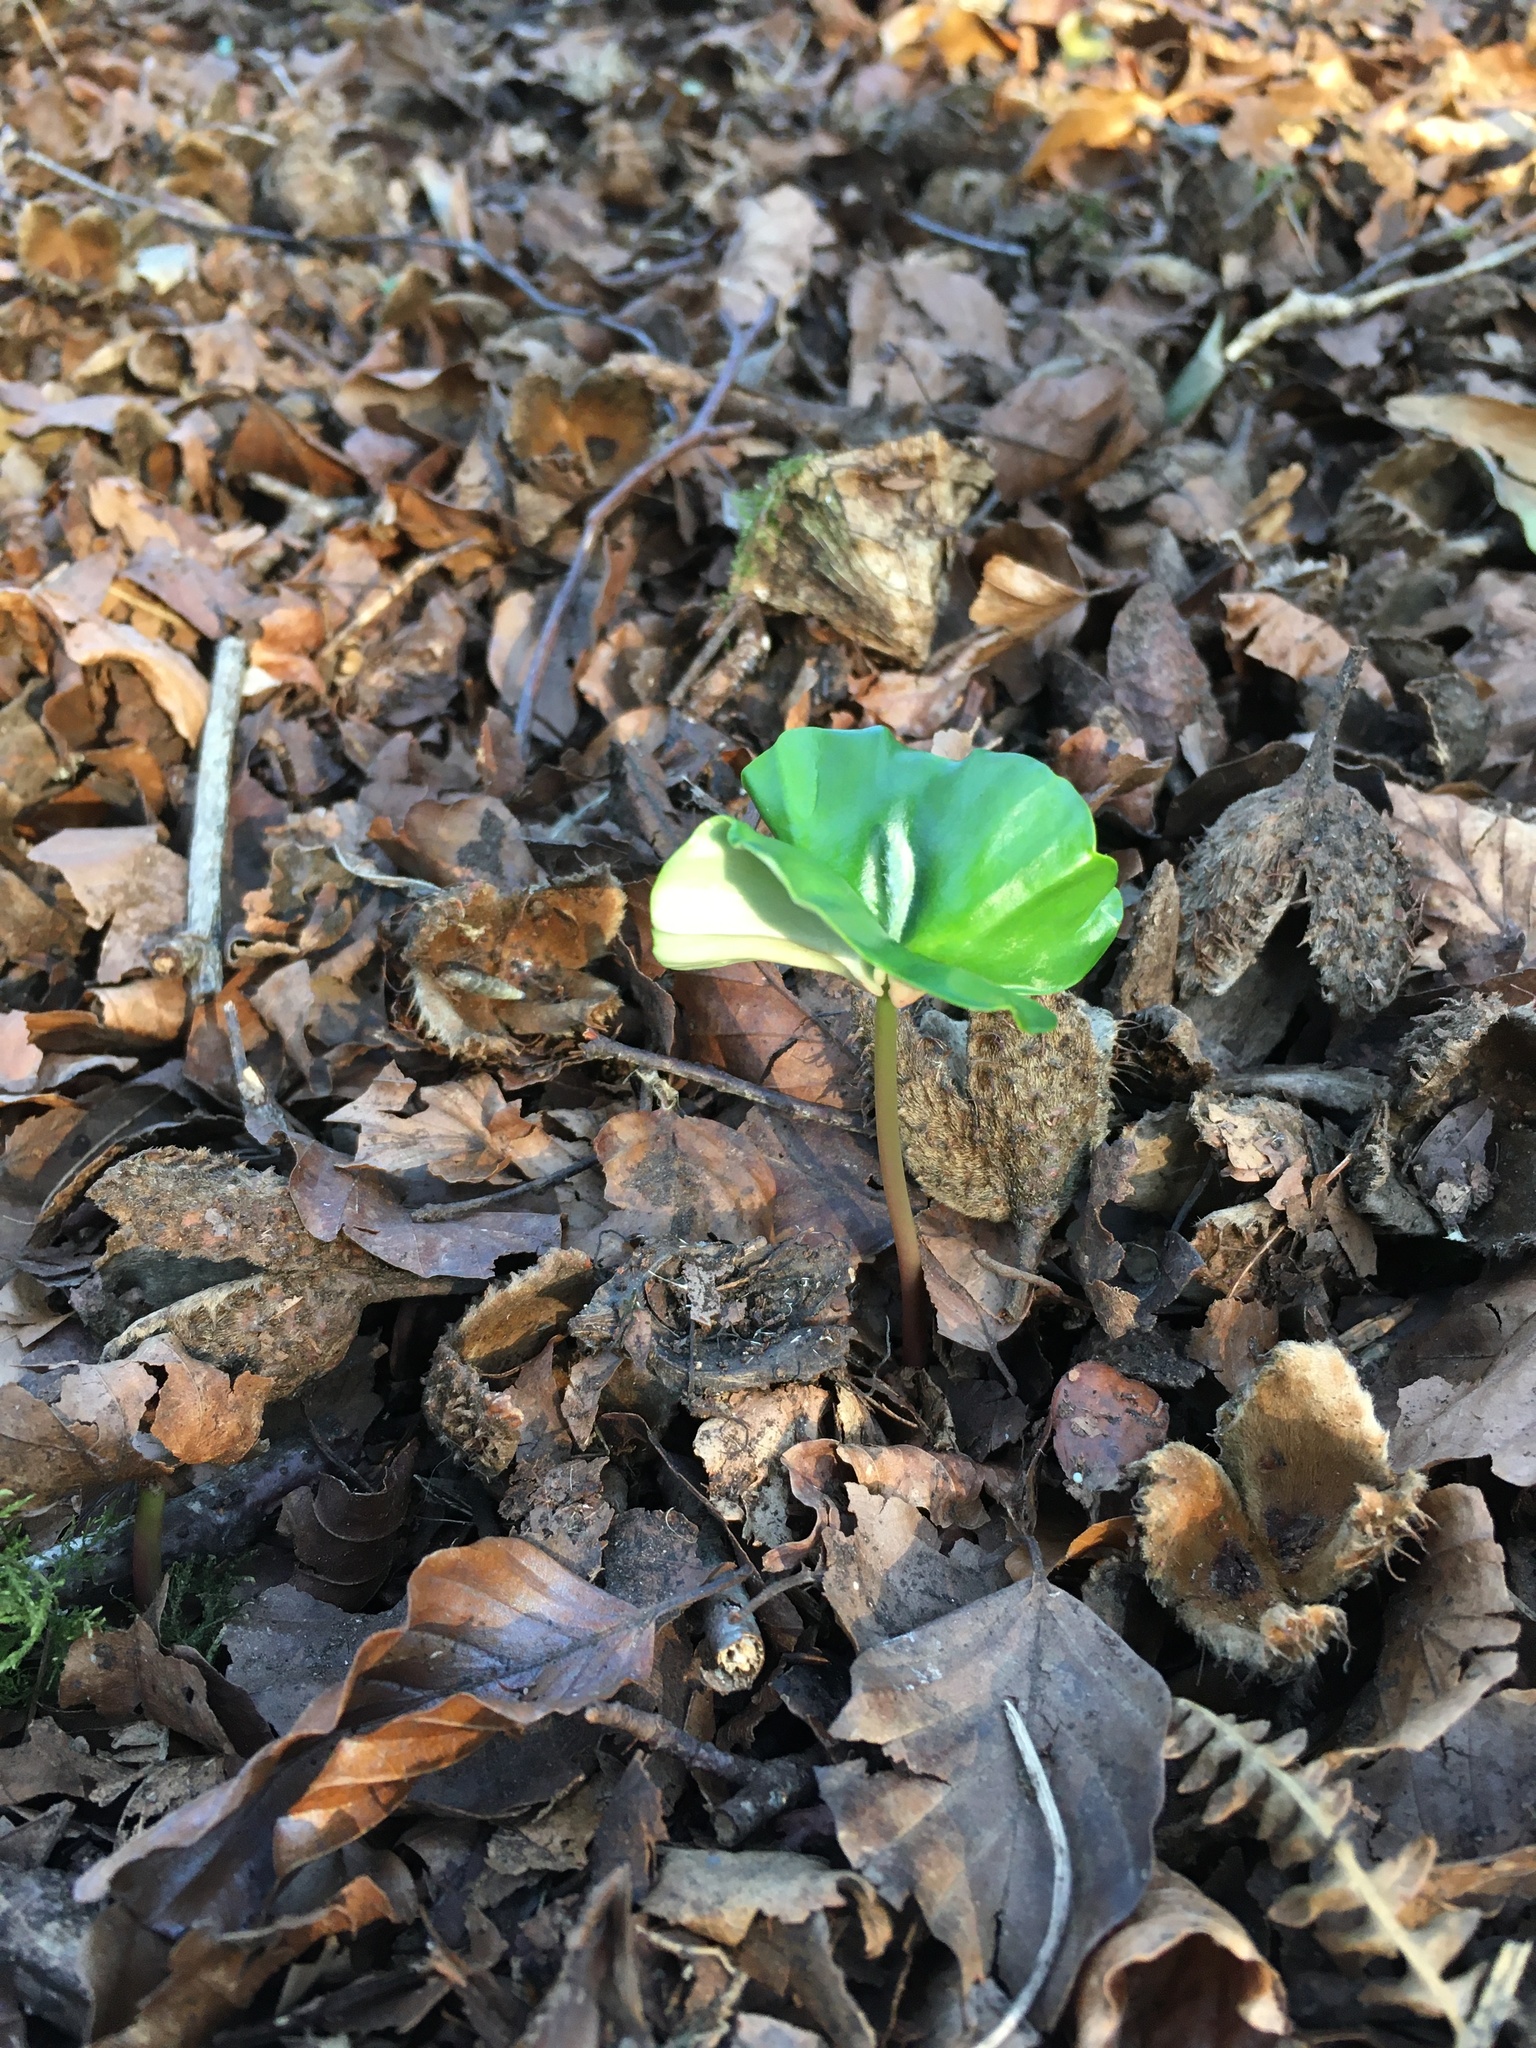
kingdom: Plantae
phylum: Tracheophyta
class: Magnoliopsida
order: Fagales
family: Fagaceae
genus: Fagus
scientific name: Fagus sylvatica
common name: Beech
